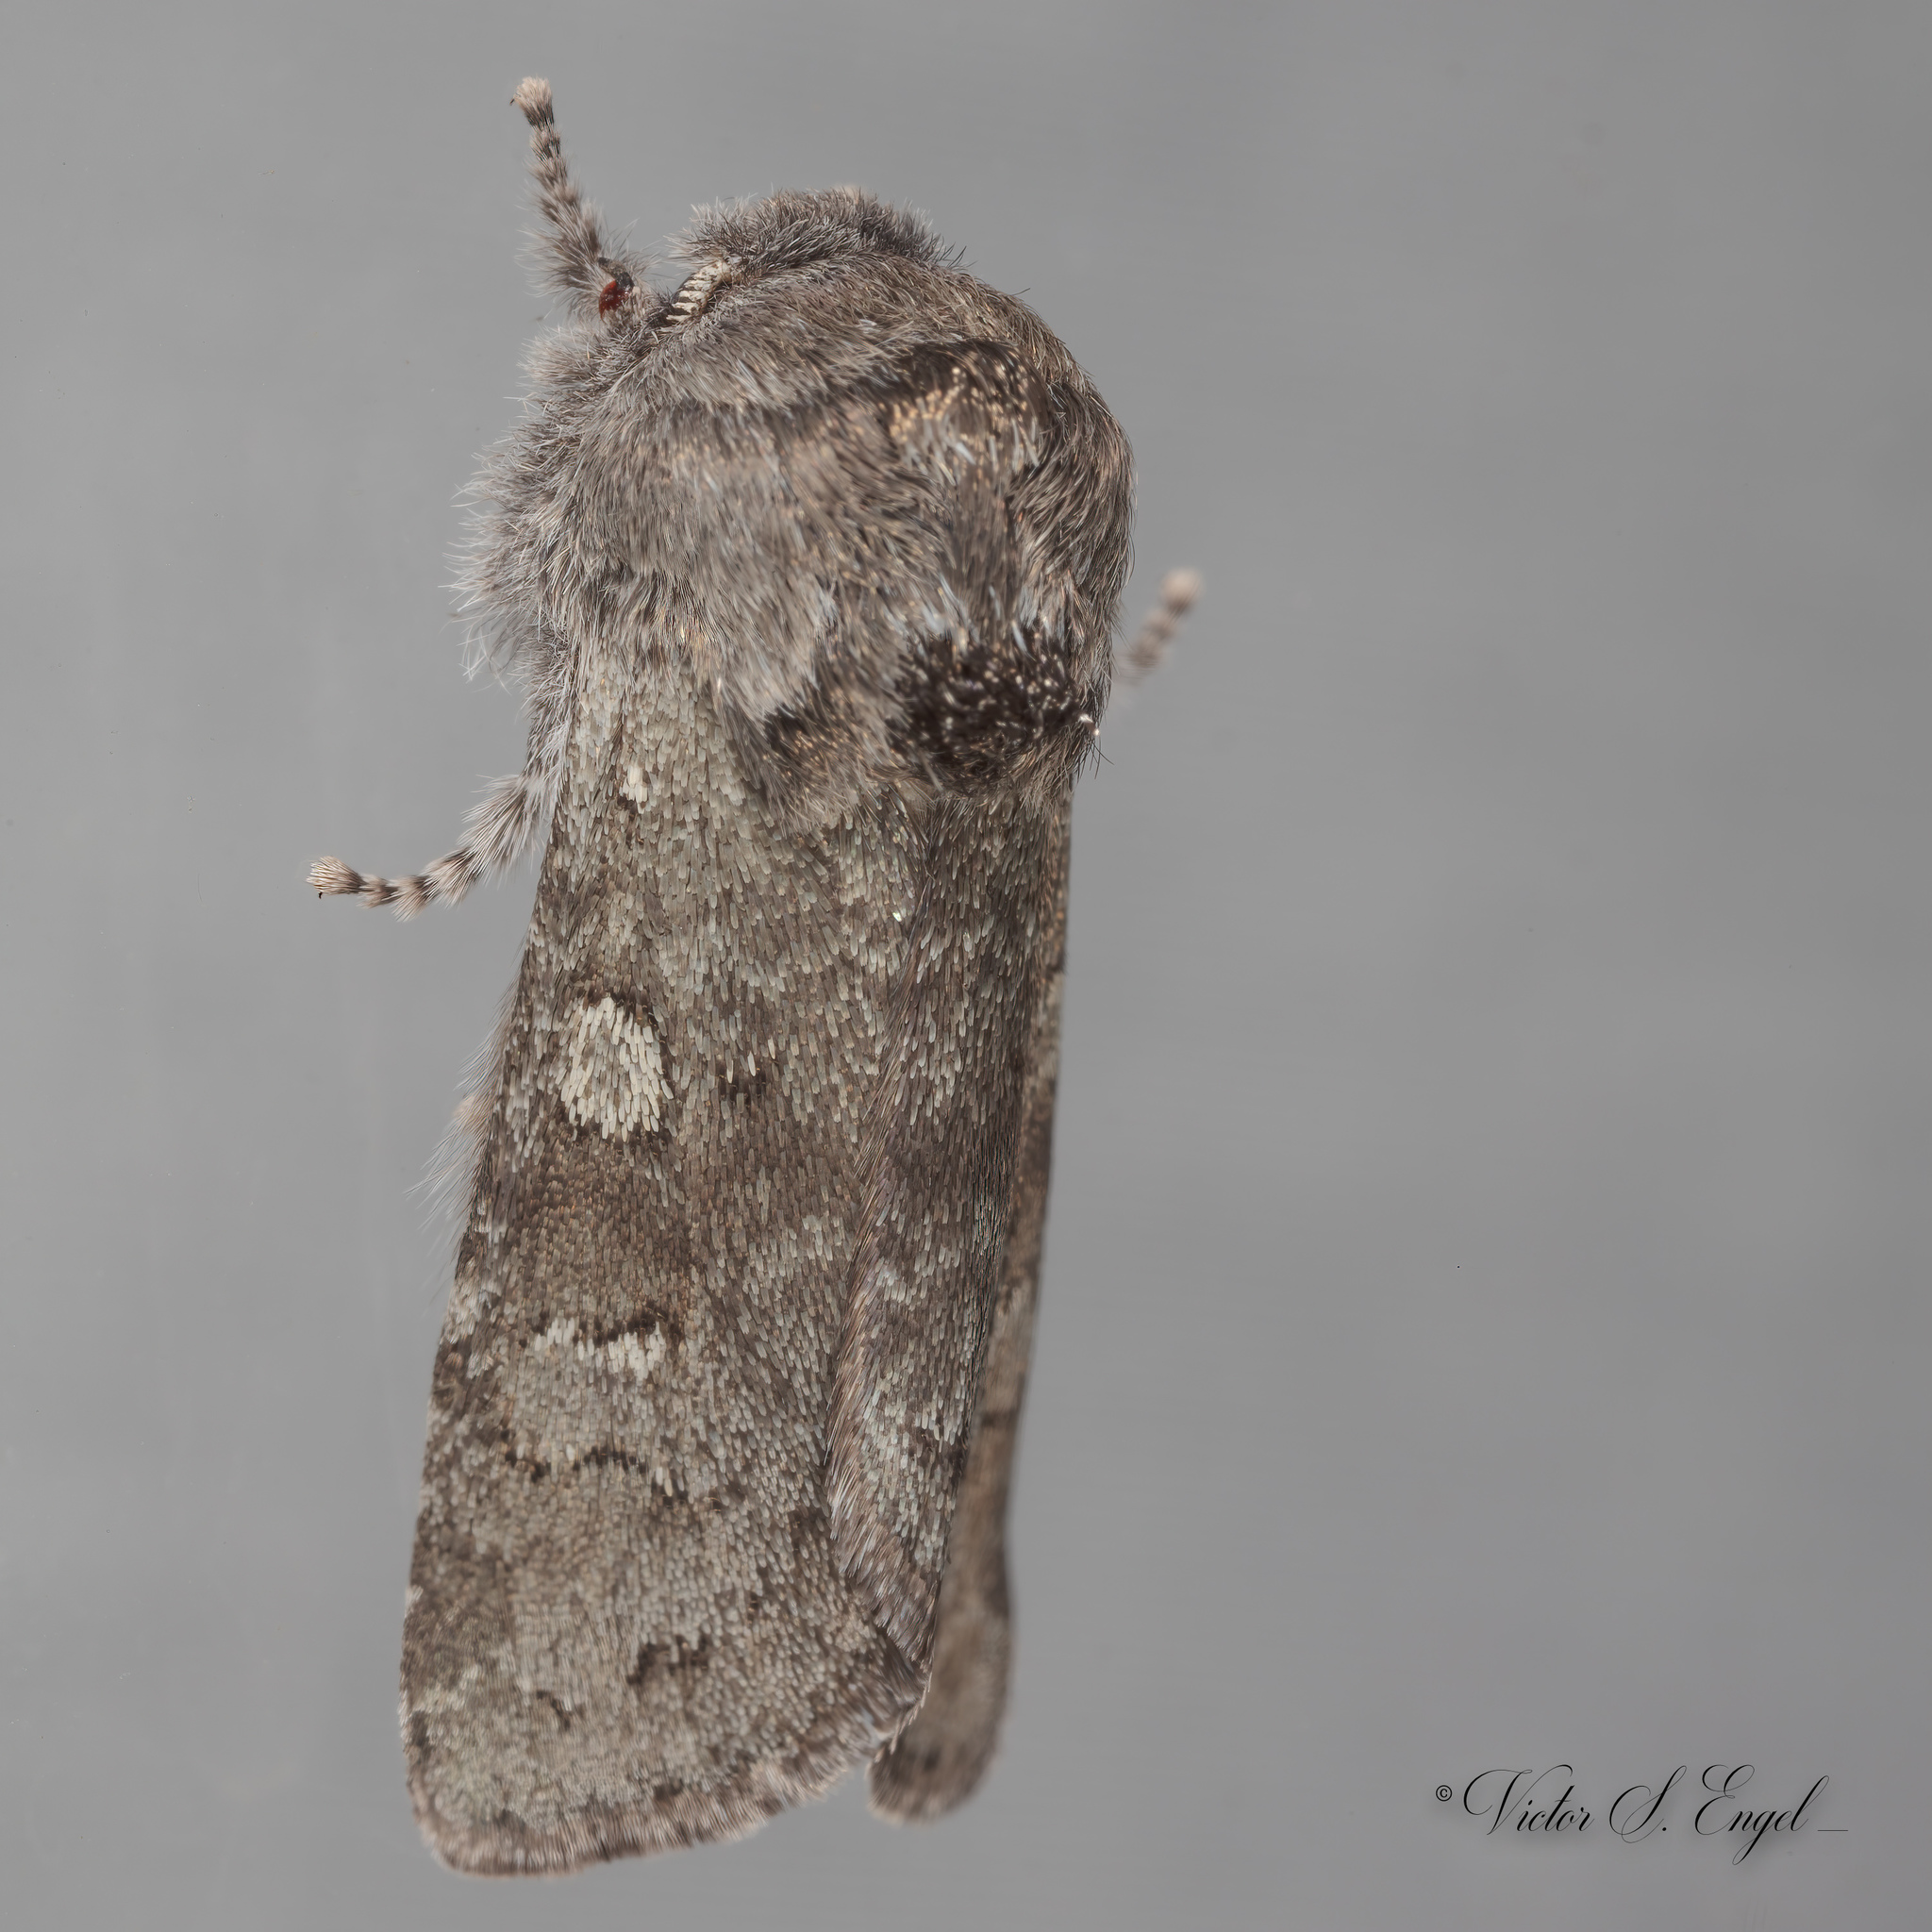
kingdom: Animalia
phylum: Arthropoda
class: Insecta
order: Lepidoptera
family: Noctuidae
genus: Psaphida
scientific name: Psaphida rolandi
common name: Roland's sallow
